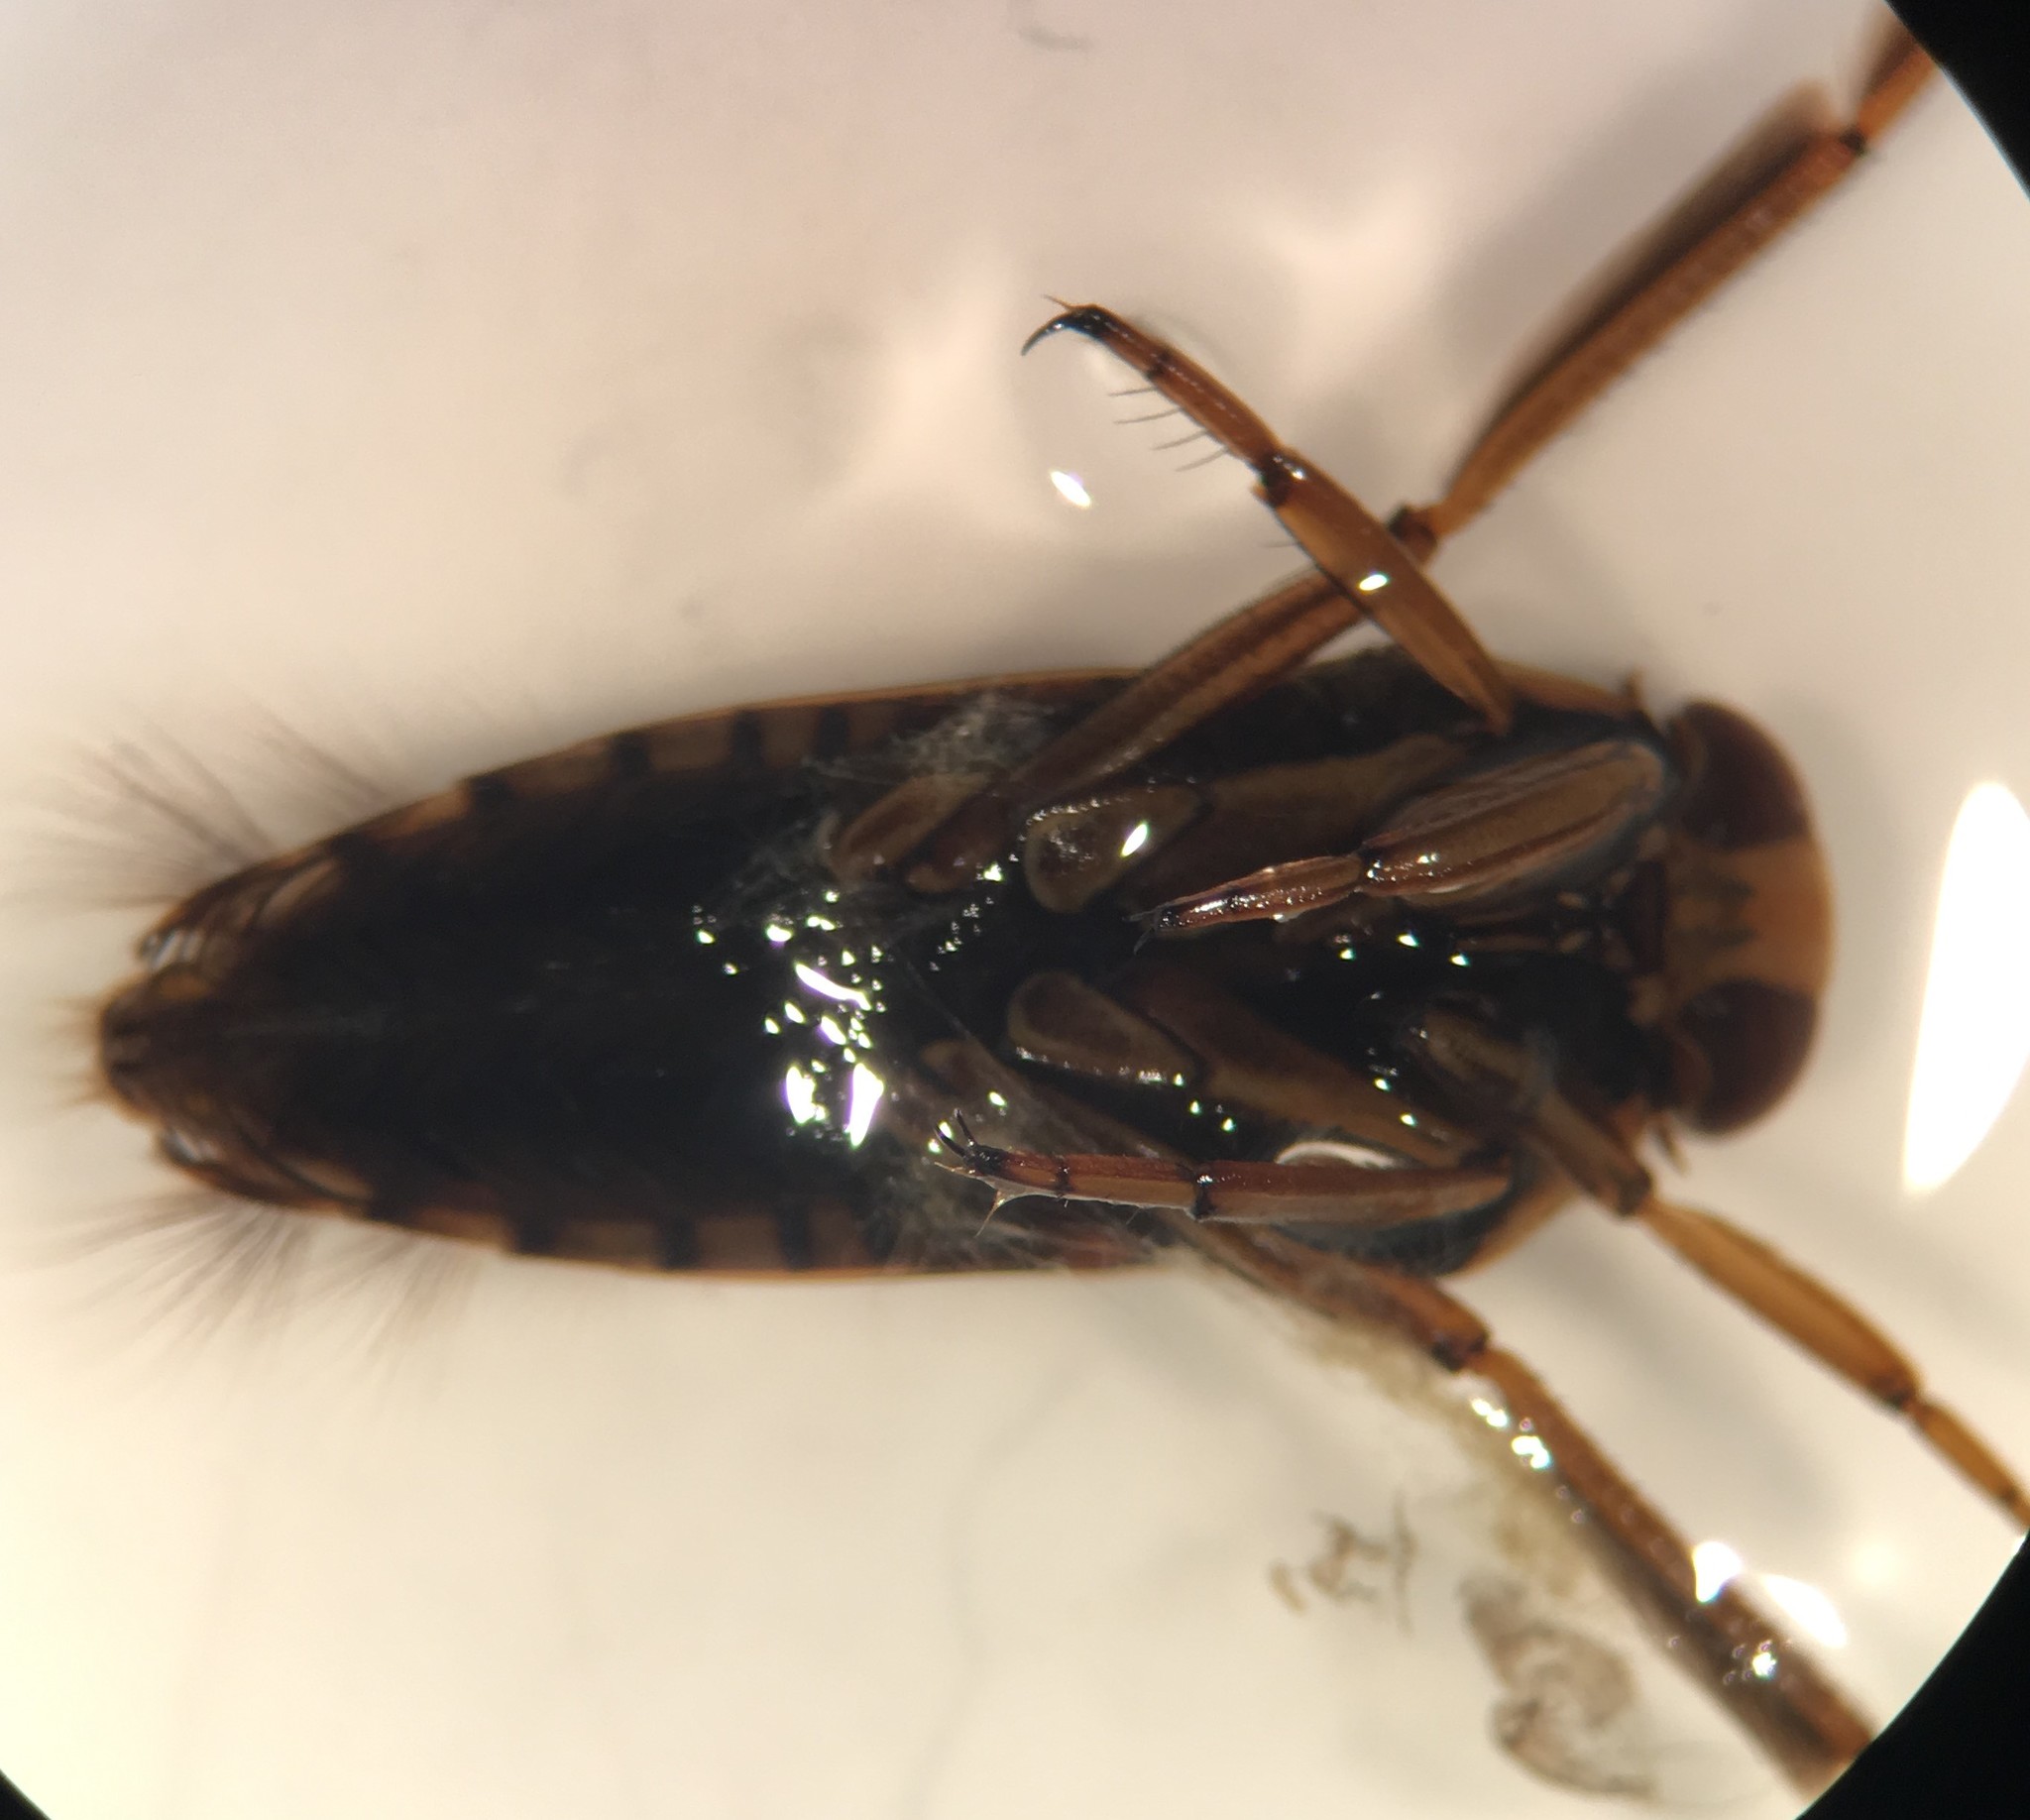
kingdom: Animalia
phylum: Arthropoda
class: Insecta
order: Hemiptera
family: Notonectidae
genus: Notonecta
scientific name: Notonecta irrorata
